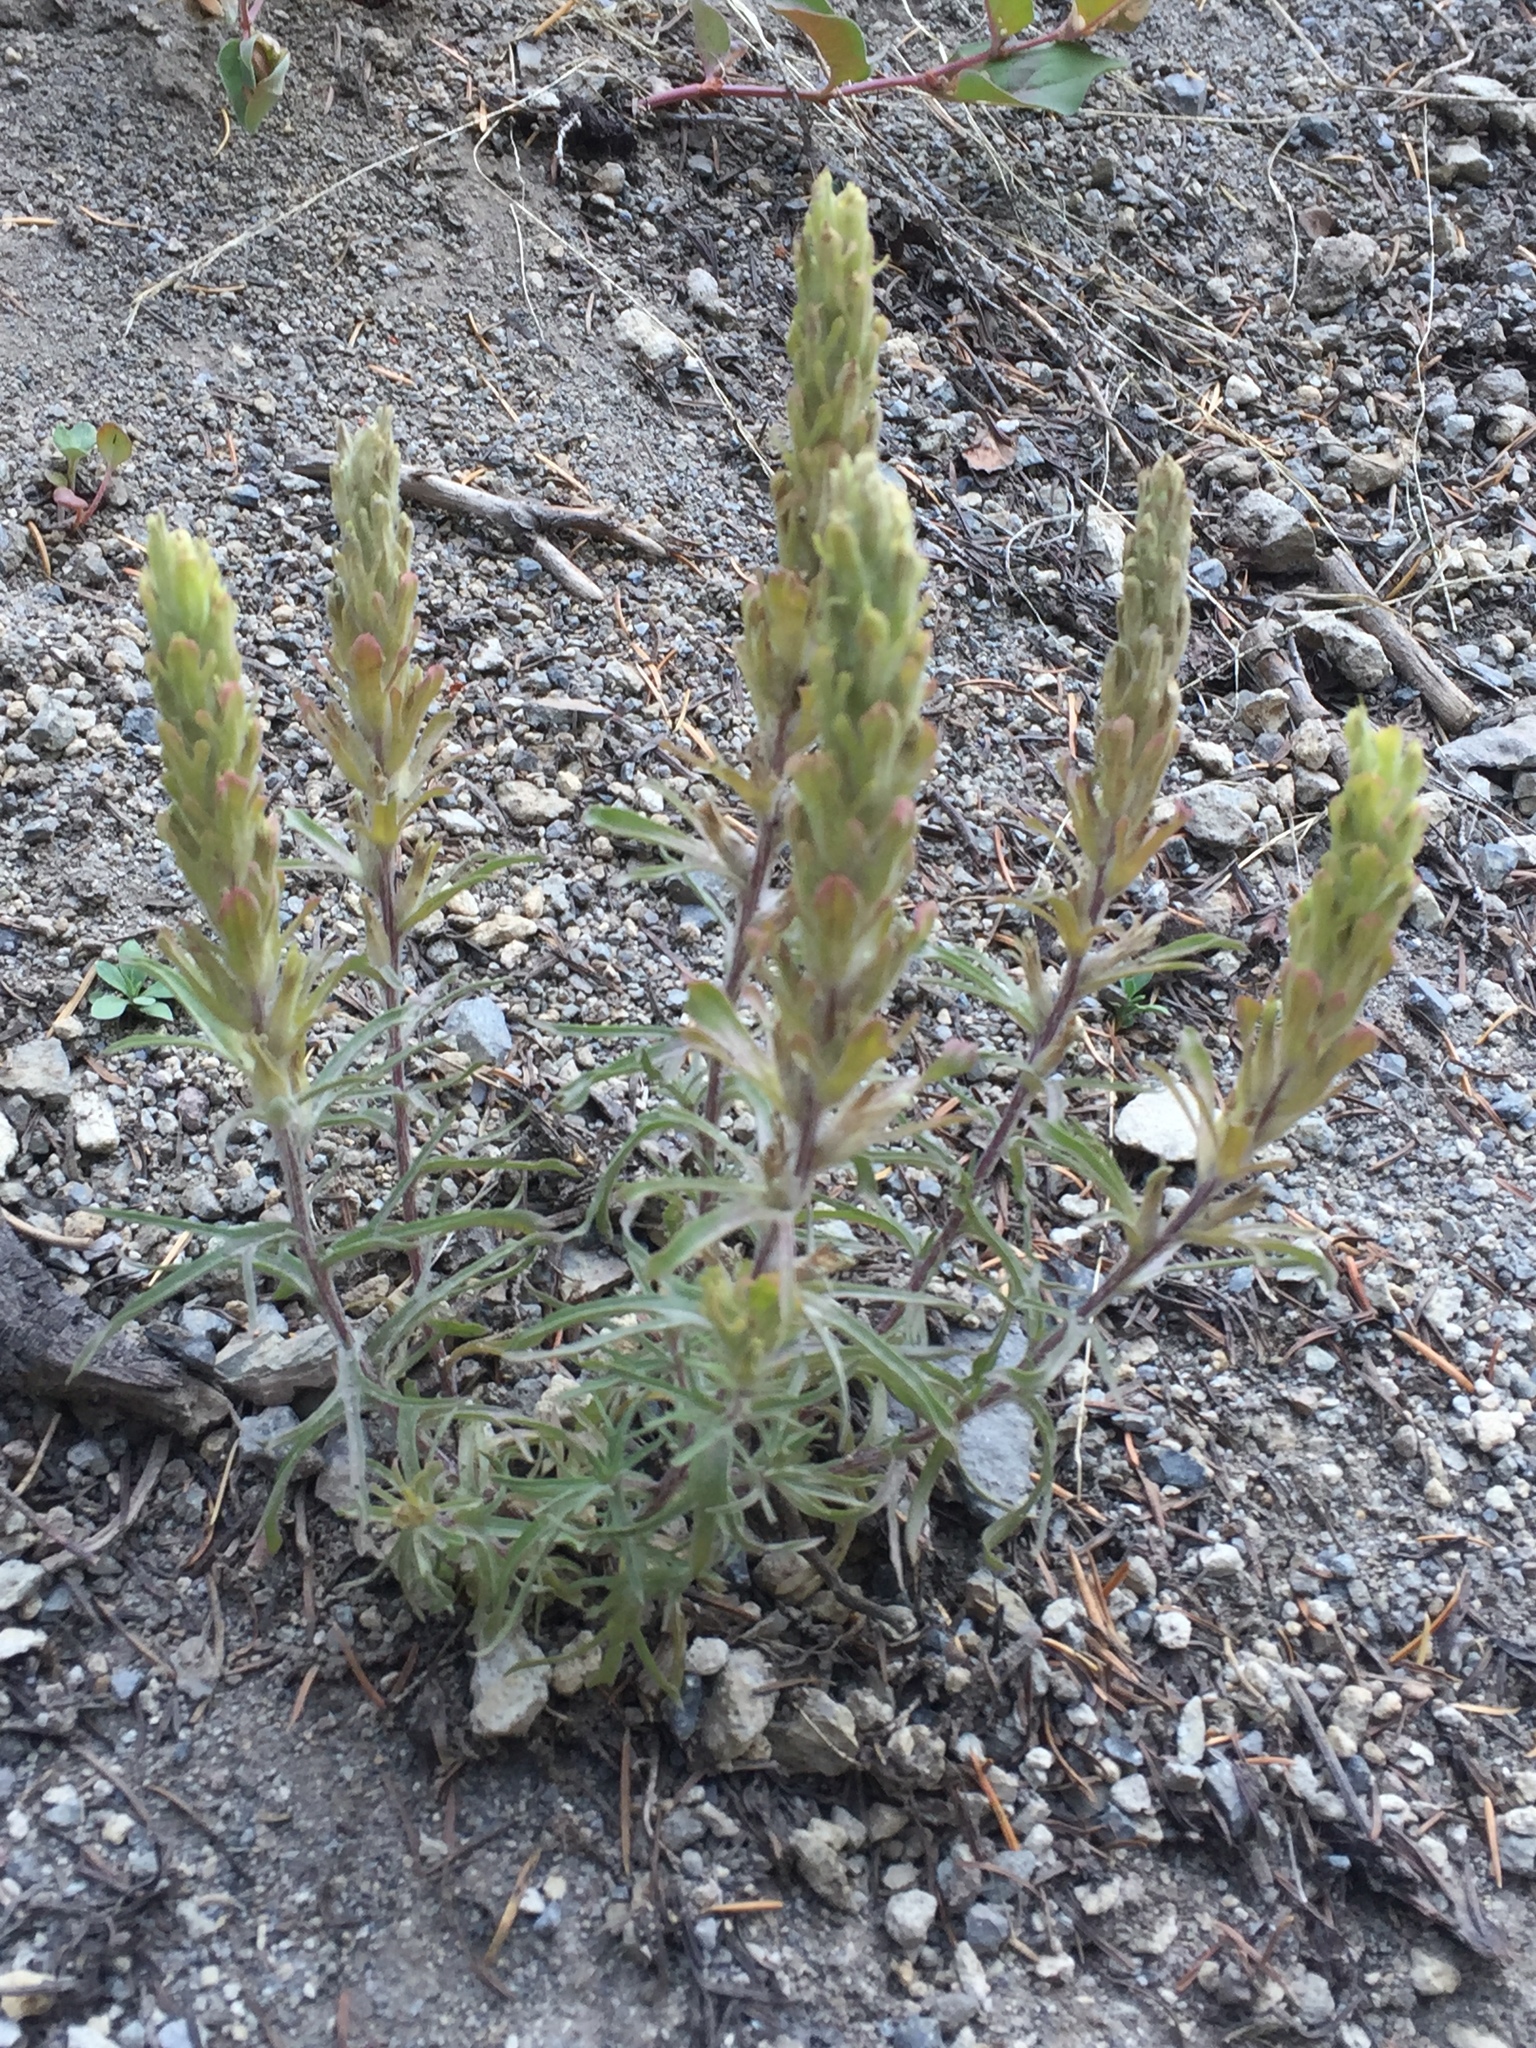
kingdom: Plantae
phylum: Tracheophyta
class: Magnoliopsida
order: Lamiales
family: Orobanchaceae
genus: Castilleja
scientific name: Castilleja arachnoidea
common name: Cobwebby indian paintbrush
